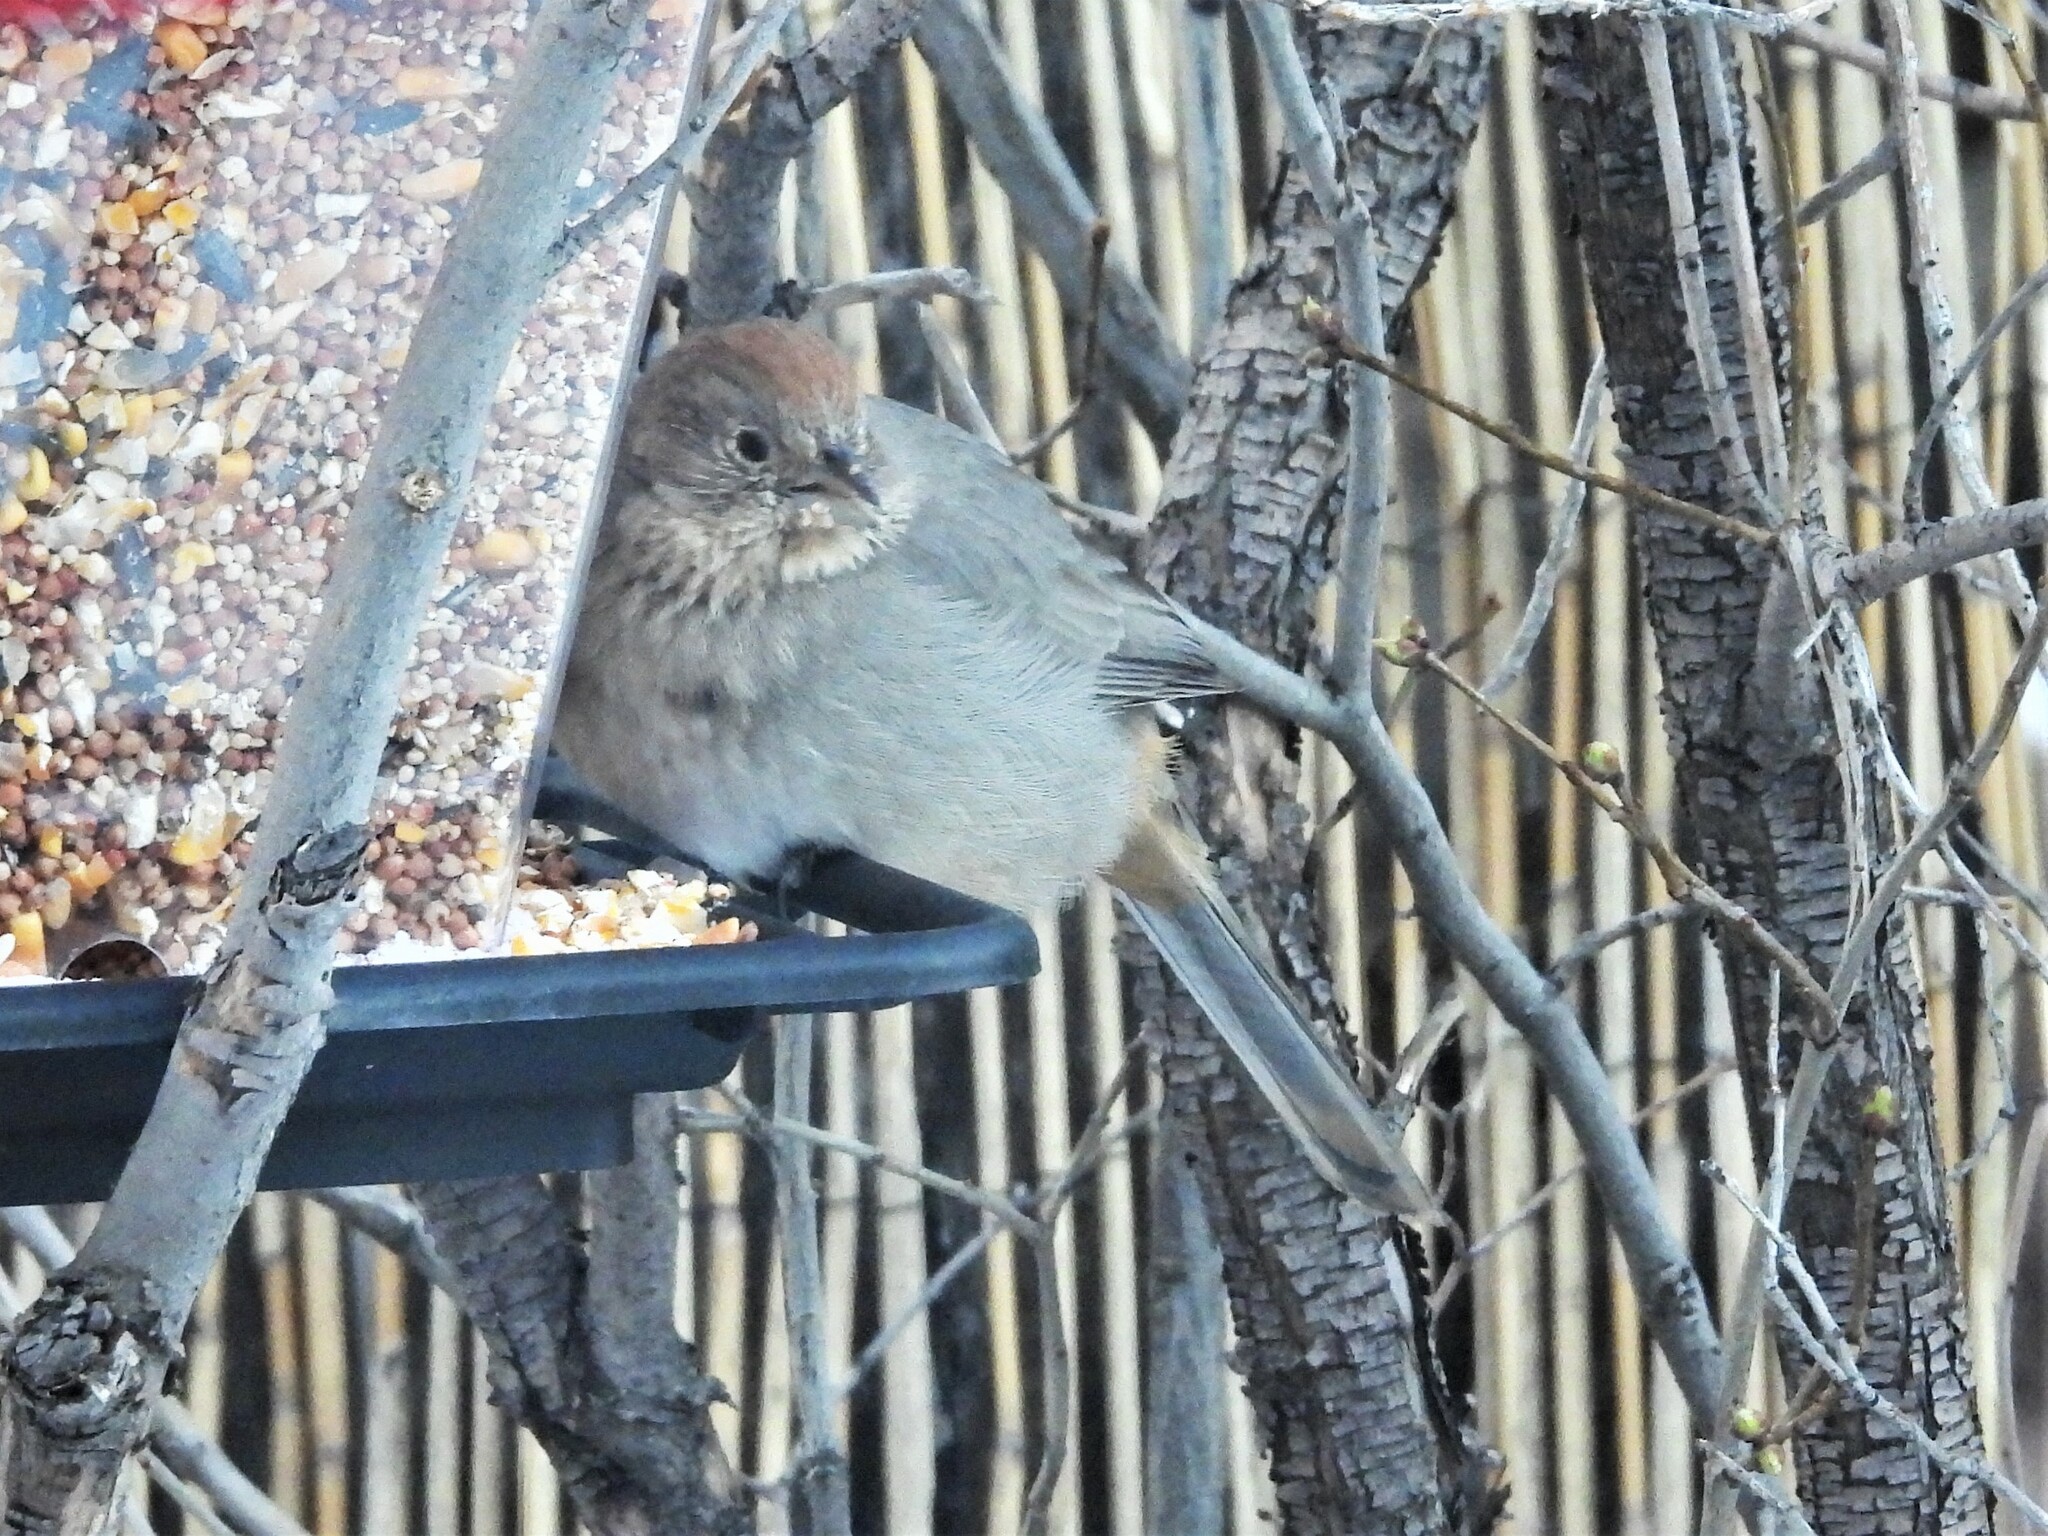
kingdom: Animalia
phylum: Chordata
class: Aves
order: Passeriformes
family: Passerellidae
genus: Melozone
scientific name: Melozone fusca
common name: Canyon towhee
